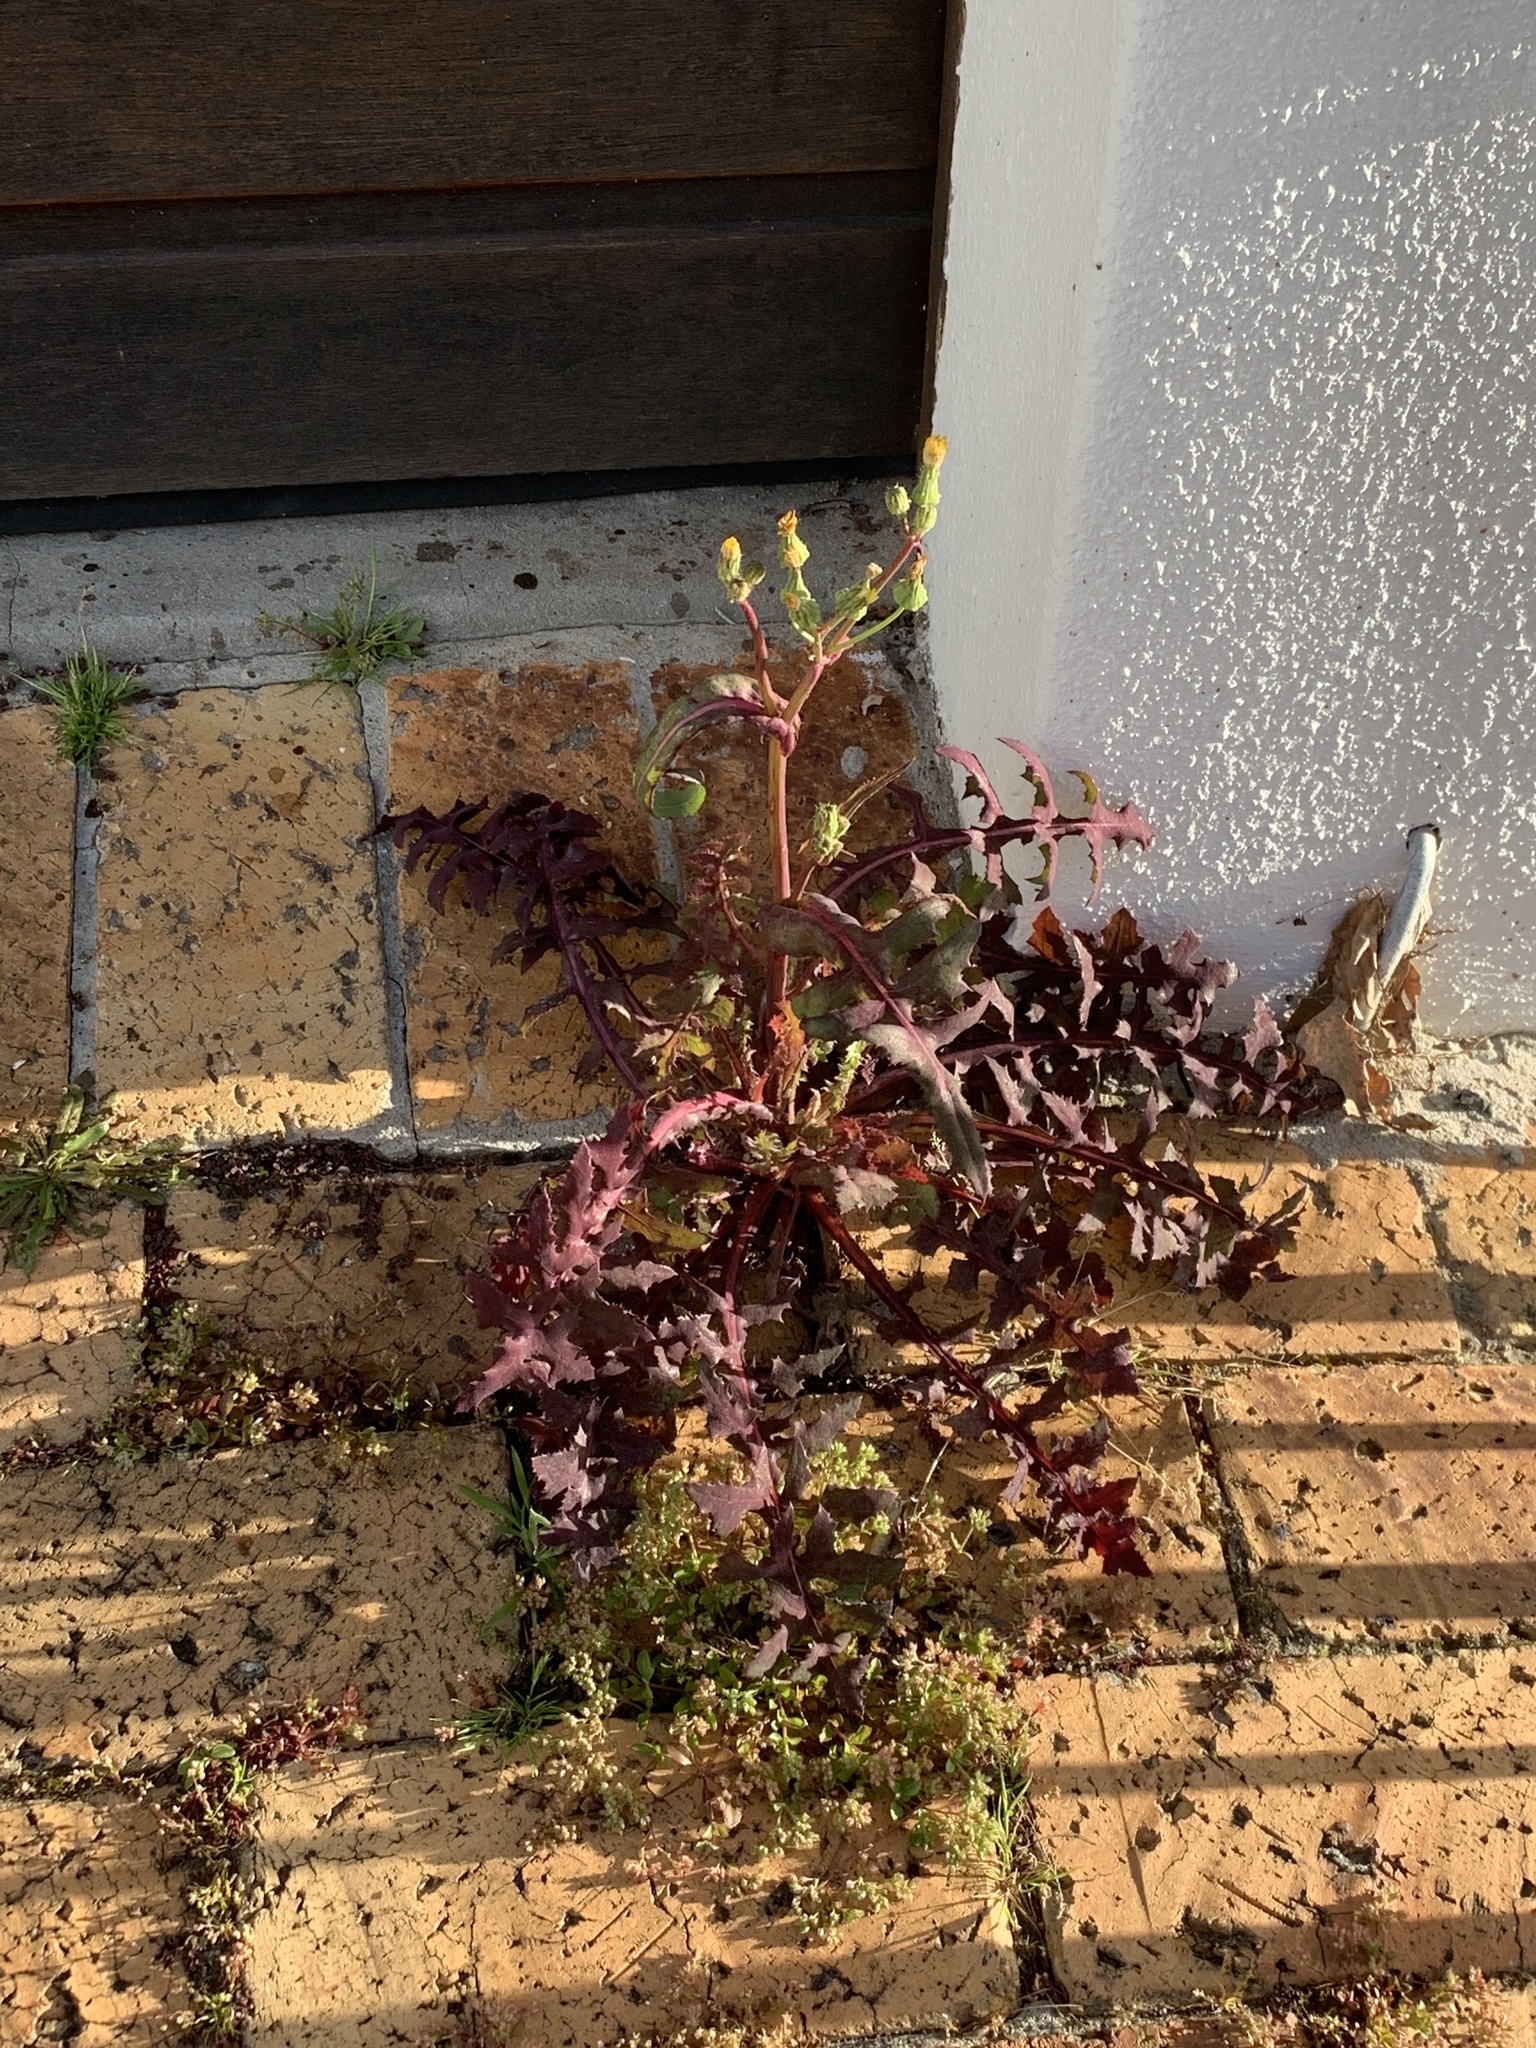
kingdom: Plantae
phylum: Tracheophyta
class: Magnoliopsida
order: Asterales
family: Asteraceae
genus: Sonchus
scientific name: Sonchus oleraceus
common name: Common sowthistle
